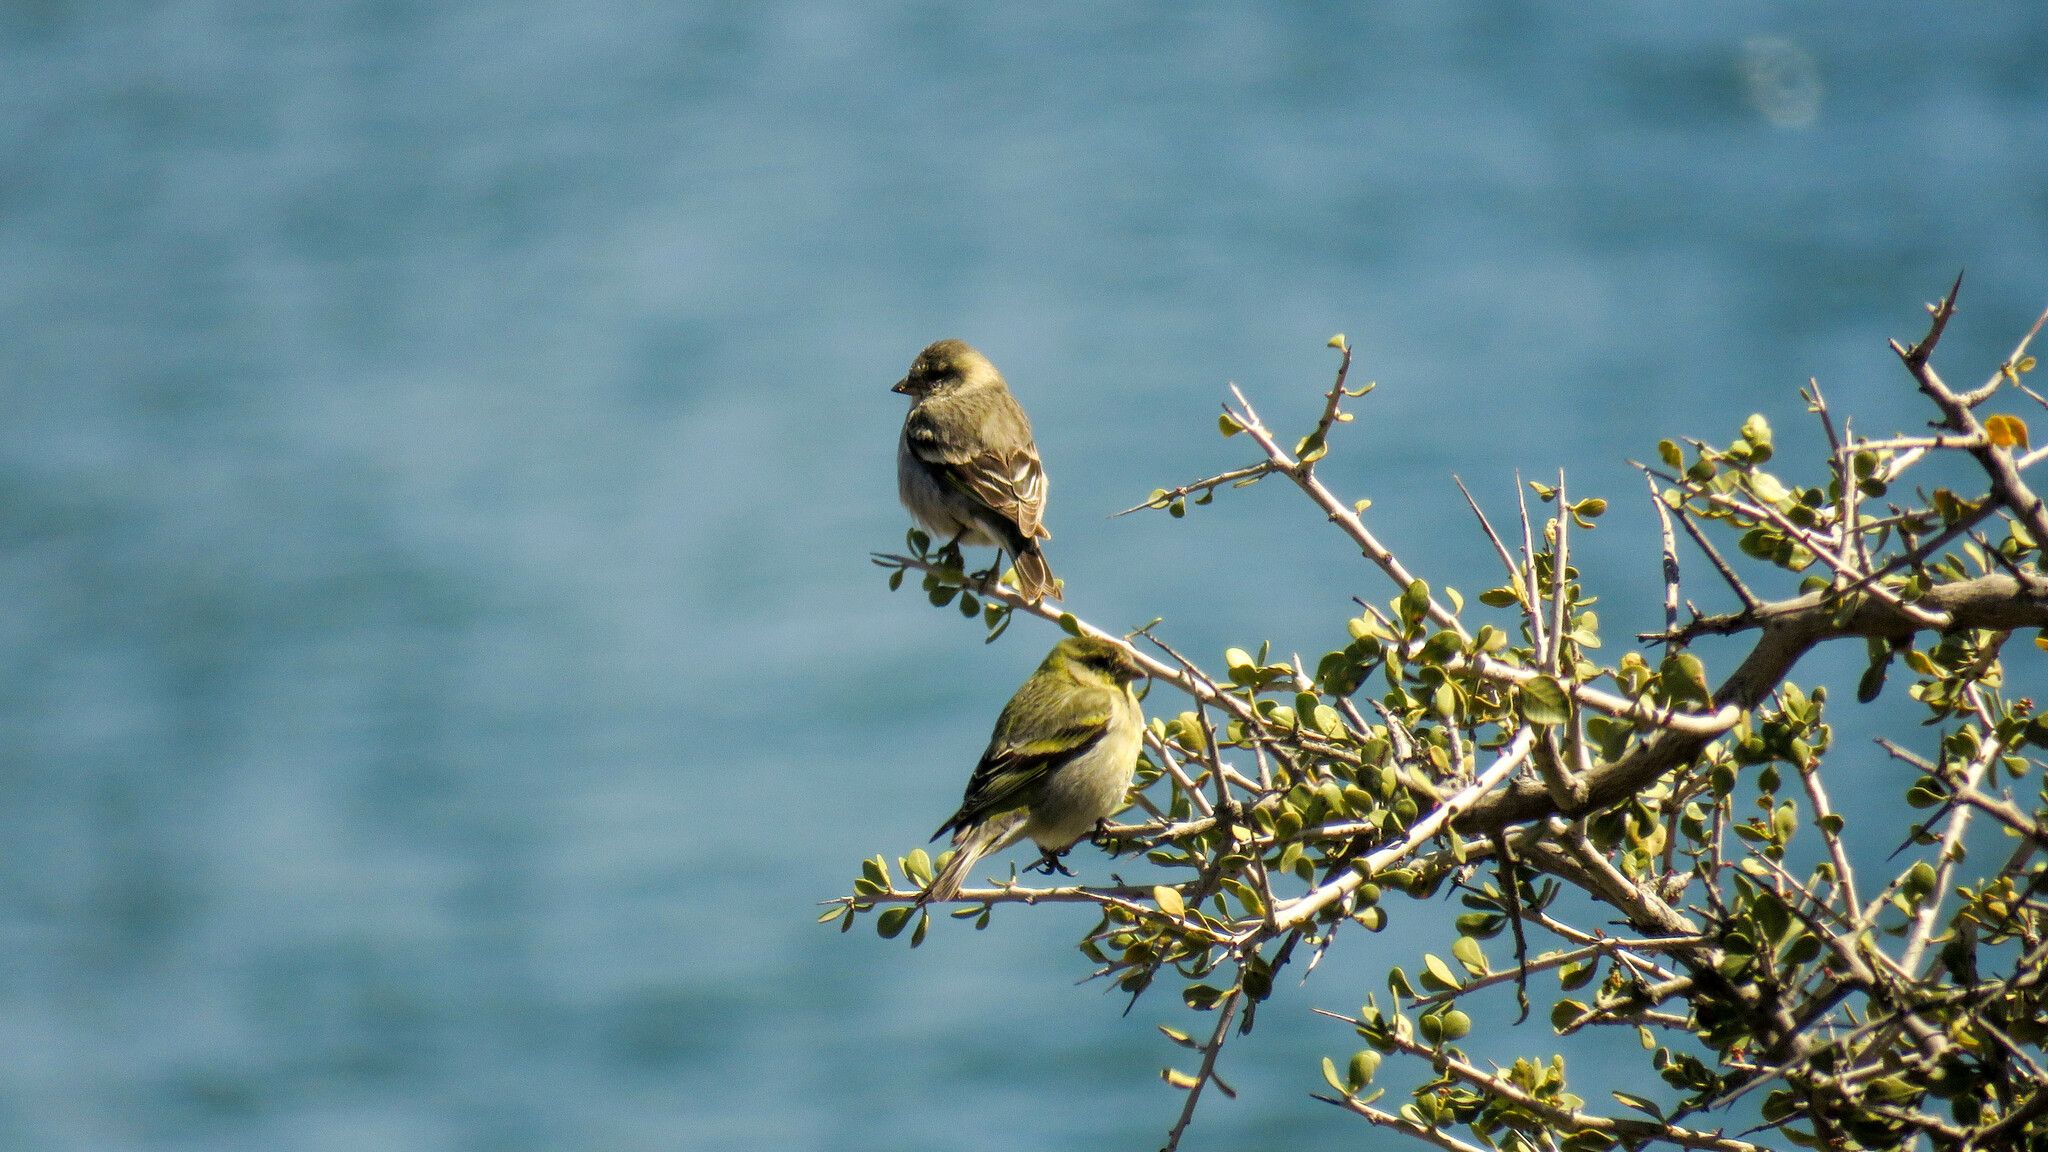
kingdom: Animalia
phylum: Chordata
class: Aves
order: Passeriformes
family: Fringillidae
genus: Spinus
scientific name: Spinus barbatus
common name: Black-chinned siskin
